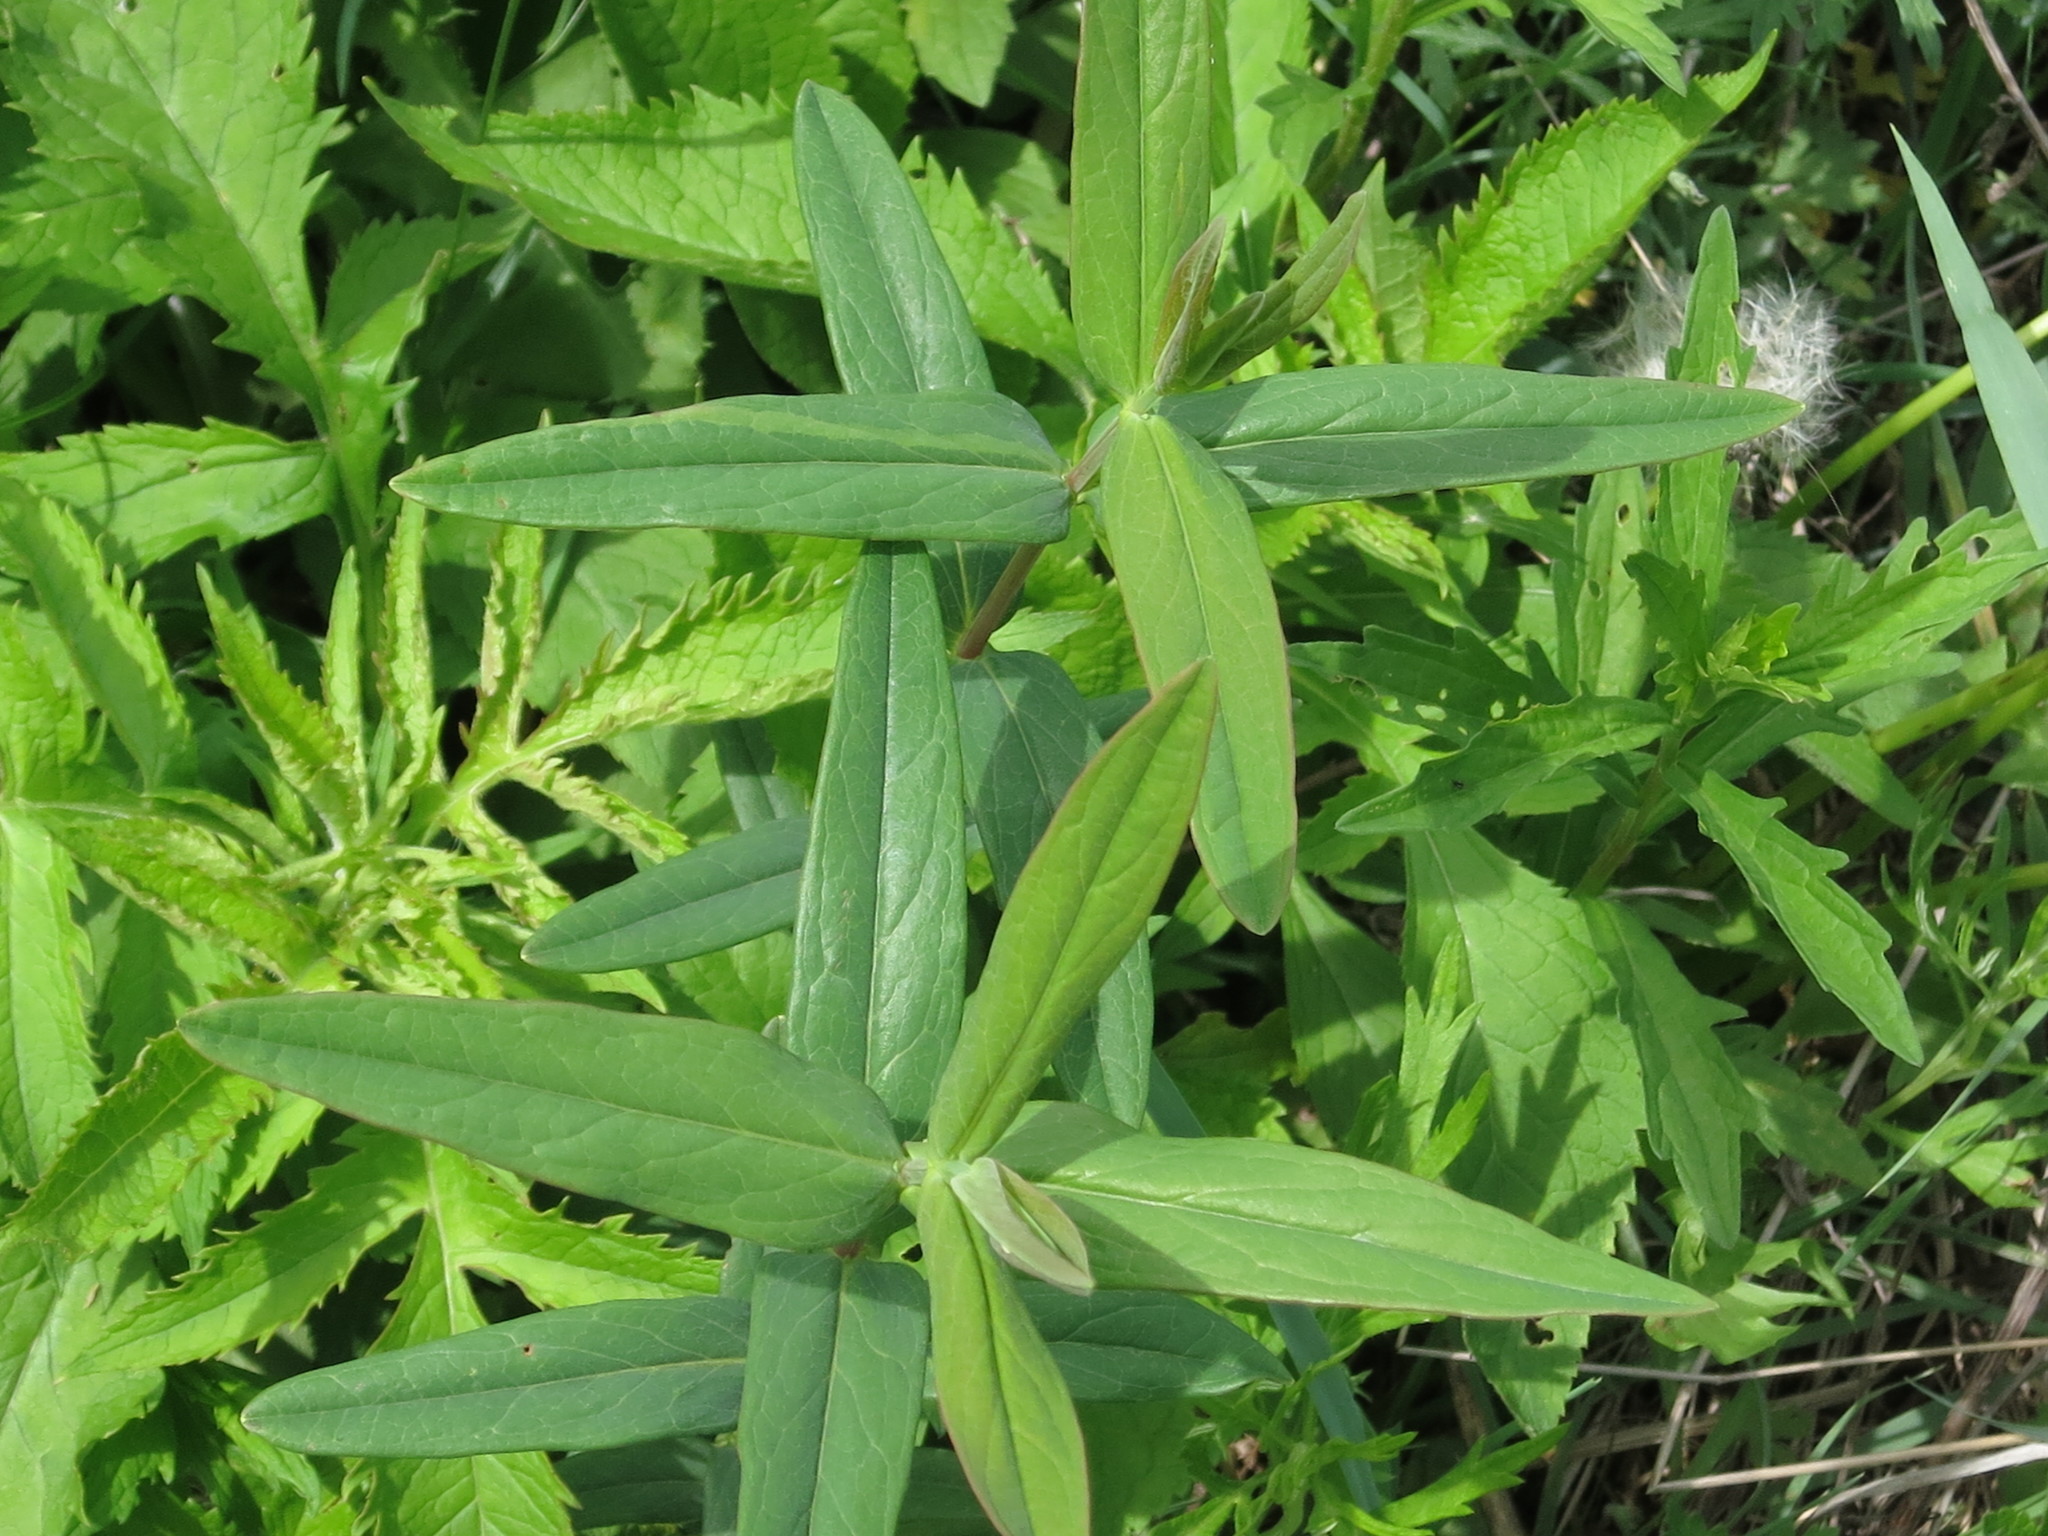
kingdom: Plantae
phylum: Tracheophyta
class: Magnoliopsida
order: Myrtales
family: Lythraceae
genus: Lythrum
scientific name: Lythrum salicaria
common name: Purple loosestrife
